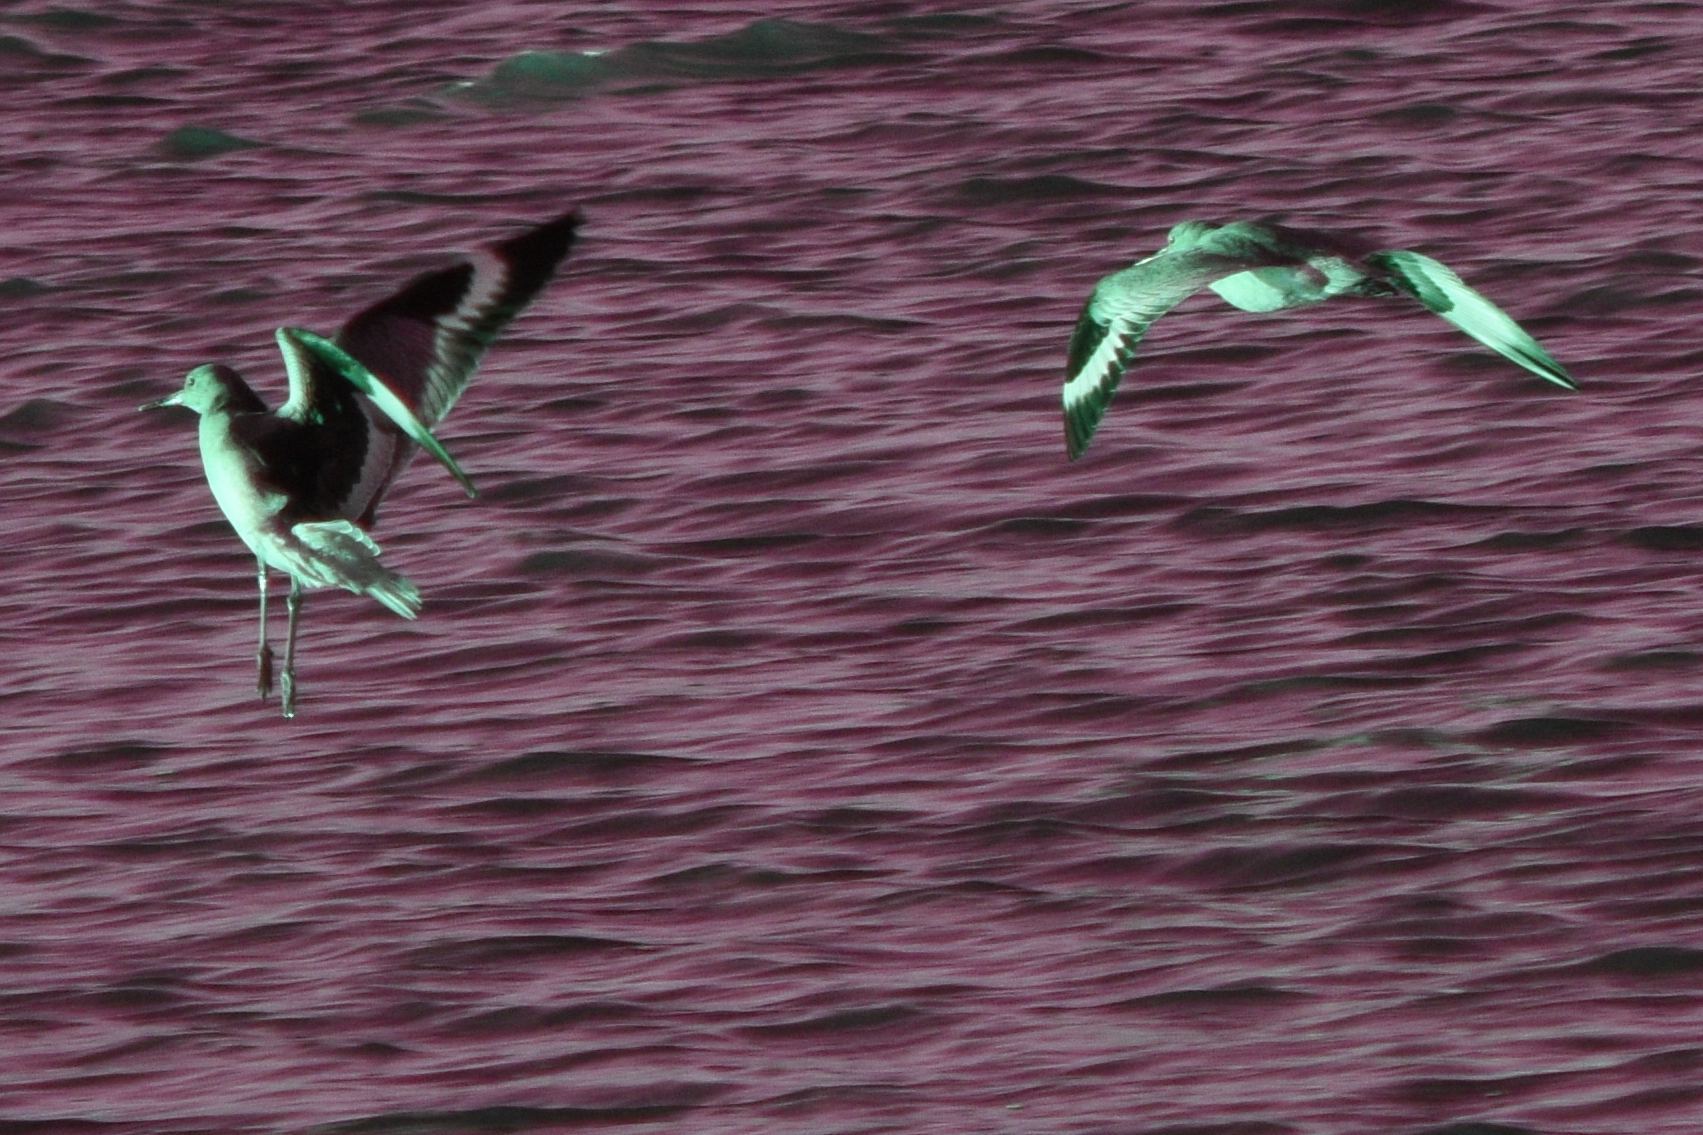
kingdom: Animalia
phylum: Chordata
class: Aves
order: Charadriiformes
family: Scolopacidae
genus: Tringa
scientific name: Tringa semipalmata
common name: Willet
